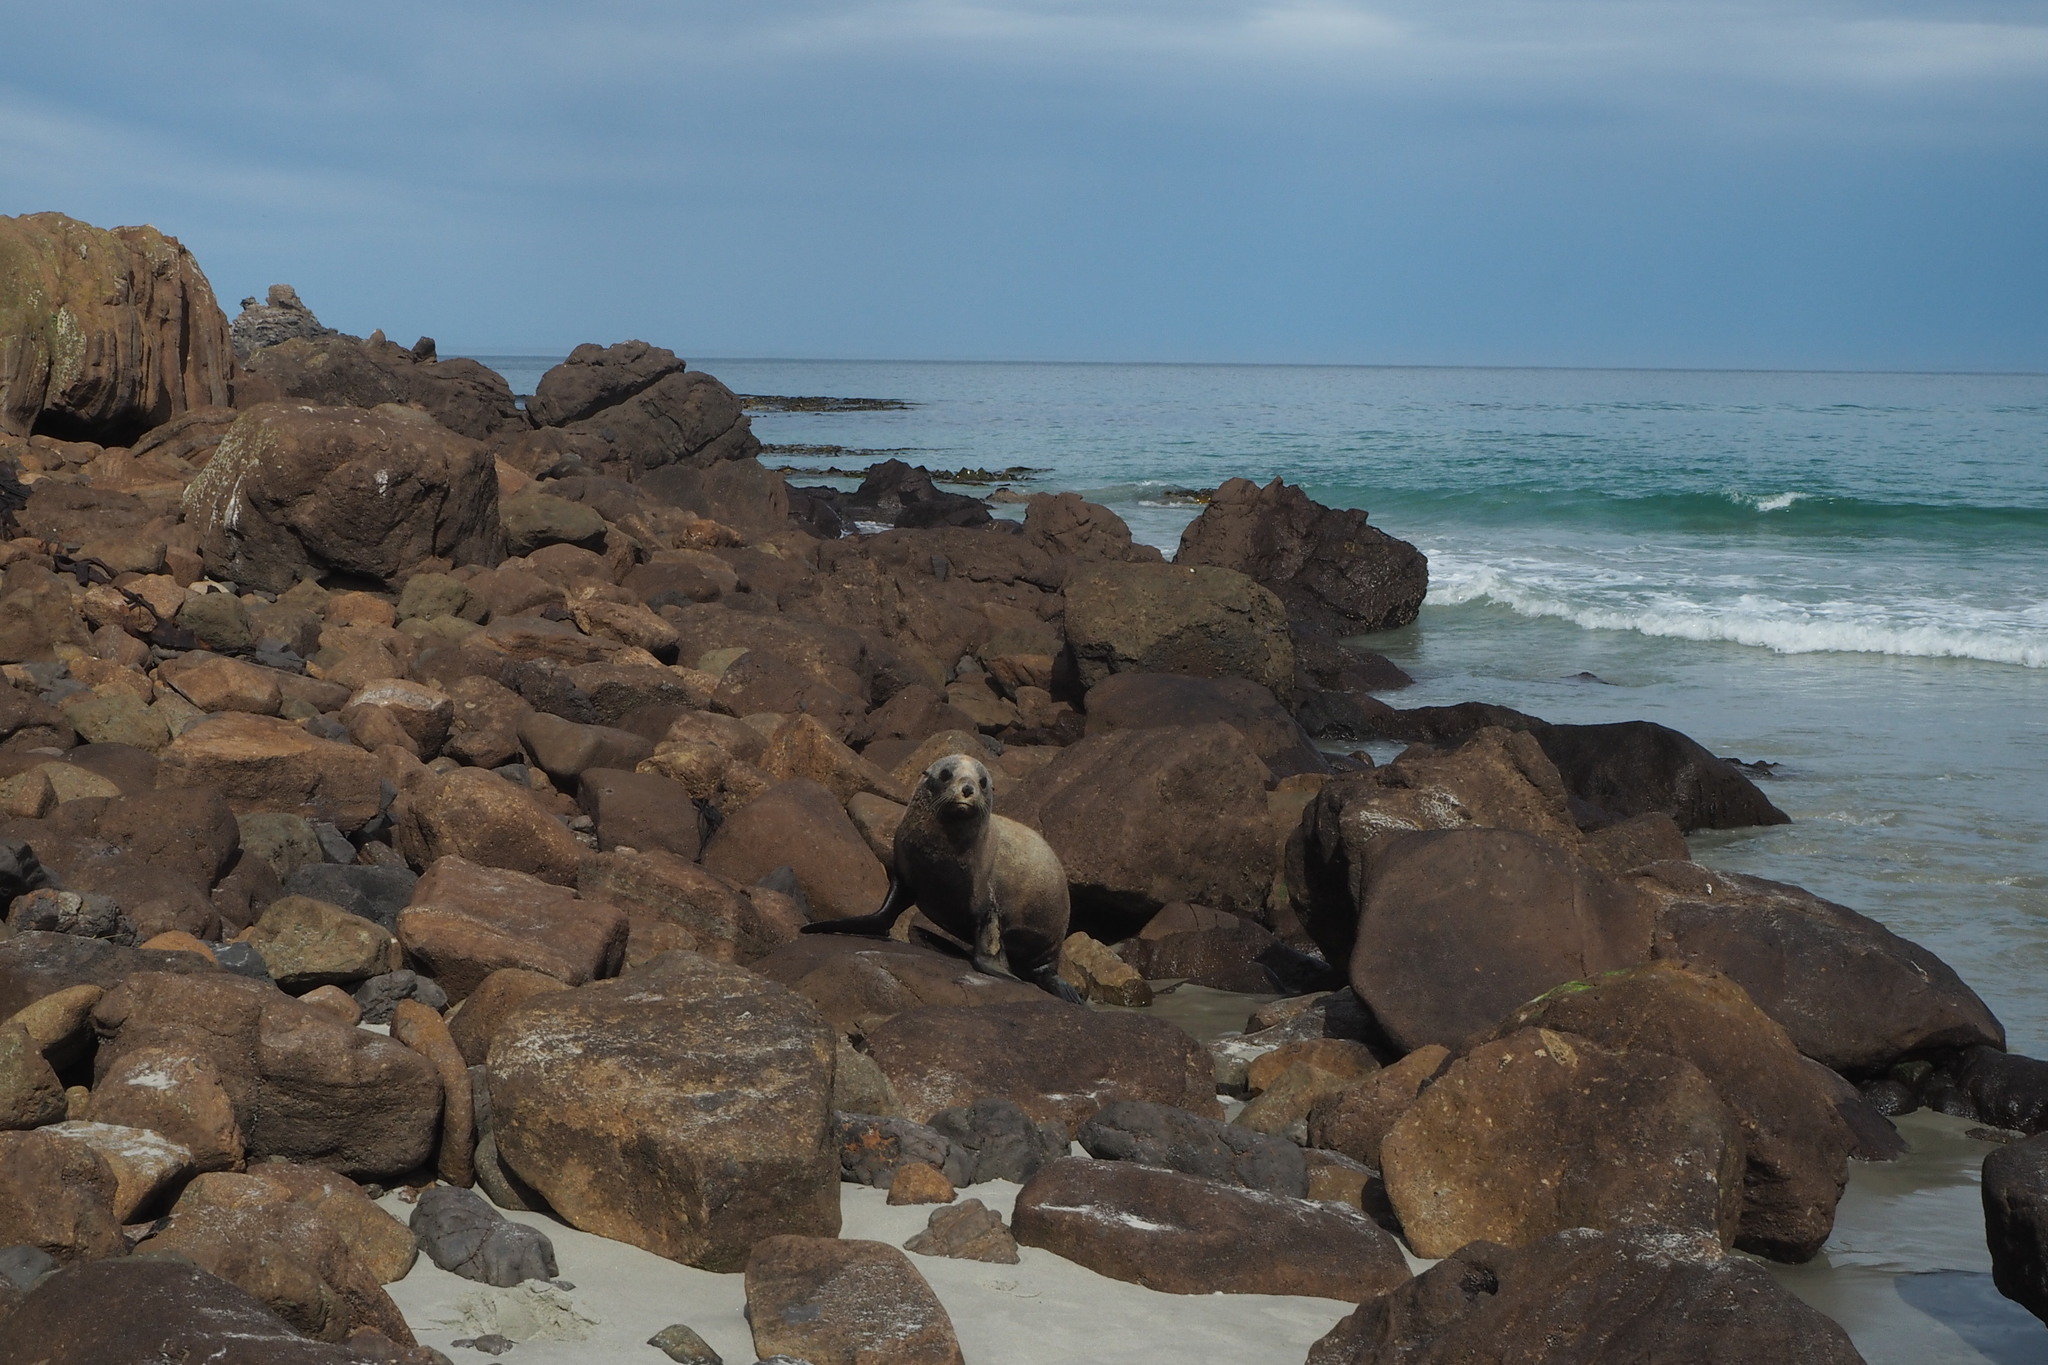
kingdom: Animalia
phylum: Chordata
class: Mammalia
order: Carnivora
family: Otariidae
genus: Arctocephalus
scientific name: Arctocephalus forsteri
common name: New zealand fur seal
